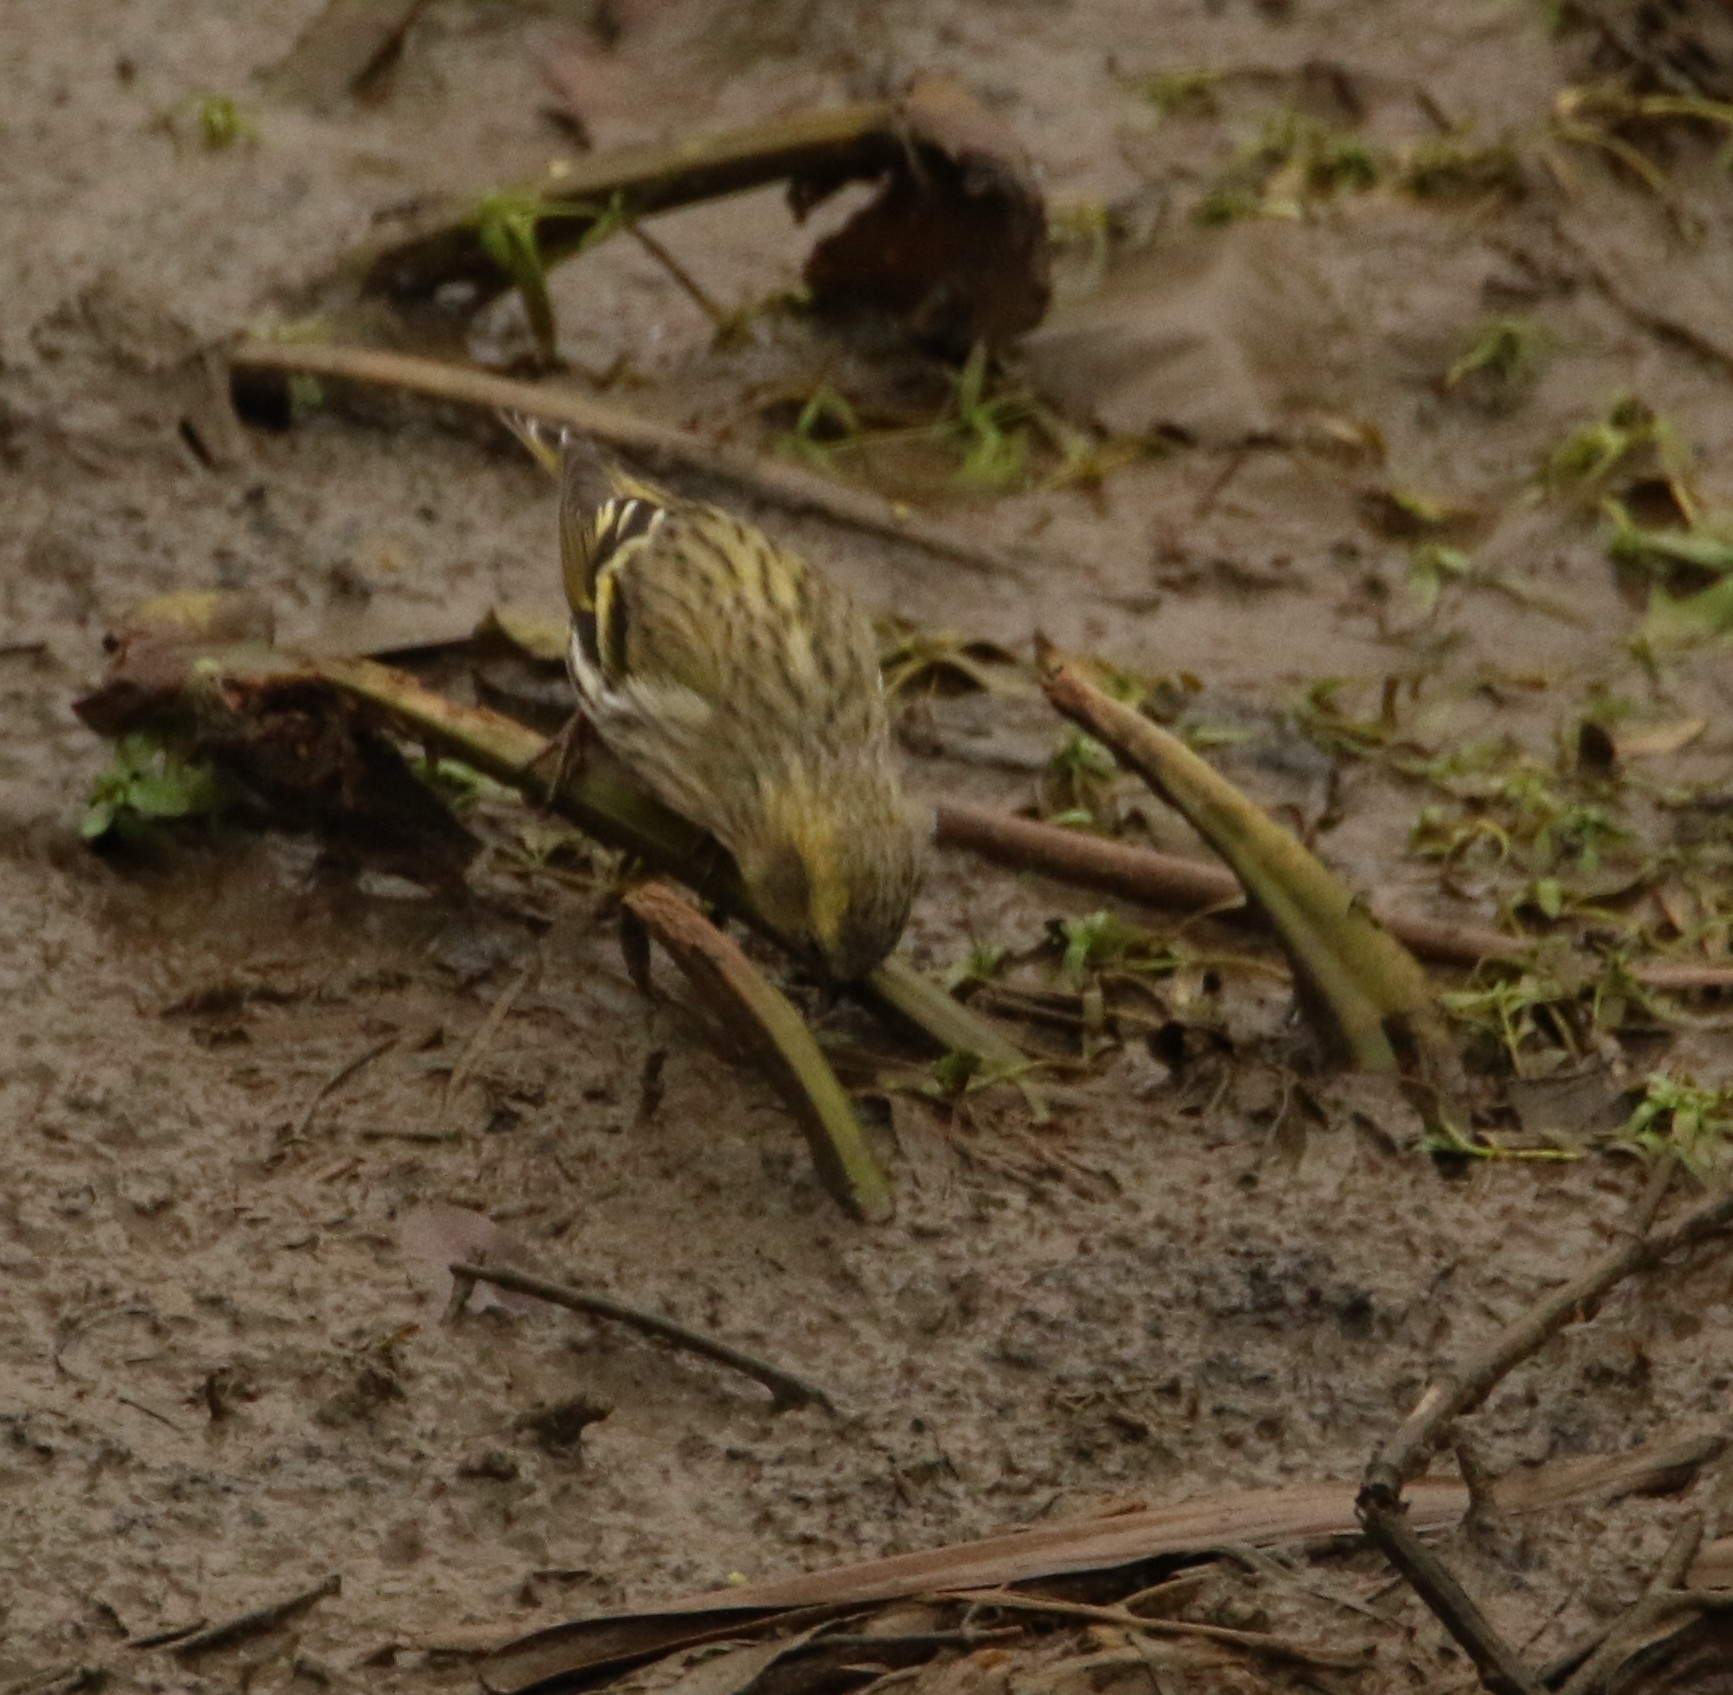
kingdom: Animalia
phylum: Chordata
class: Aves
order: Passeriformes
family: Fringillidae
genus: Spinus
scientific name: Spinus spinus
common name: Eurasian siskin
